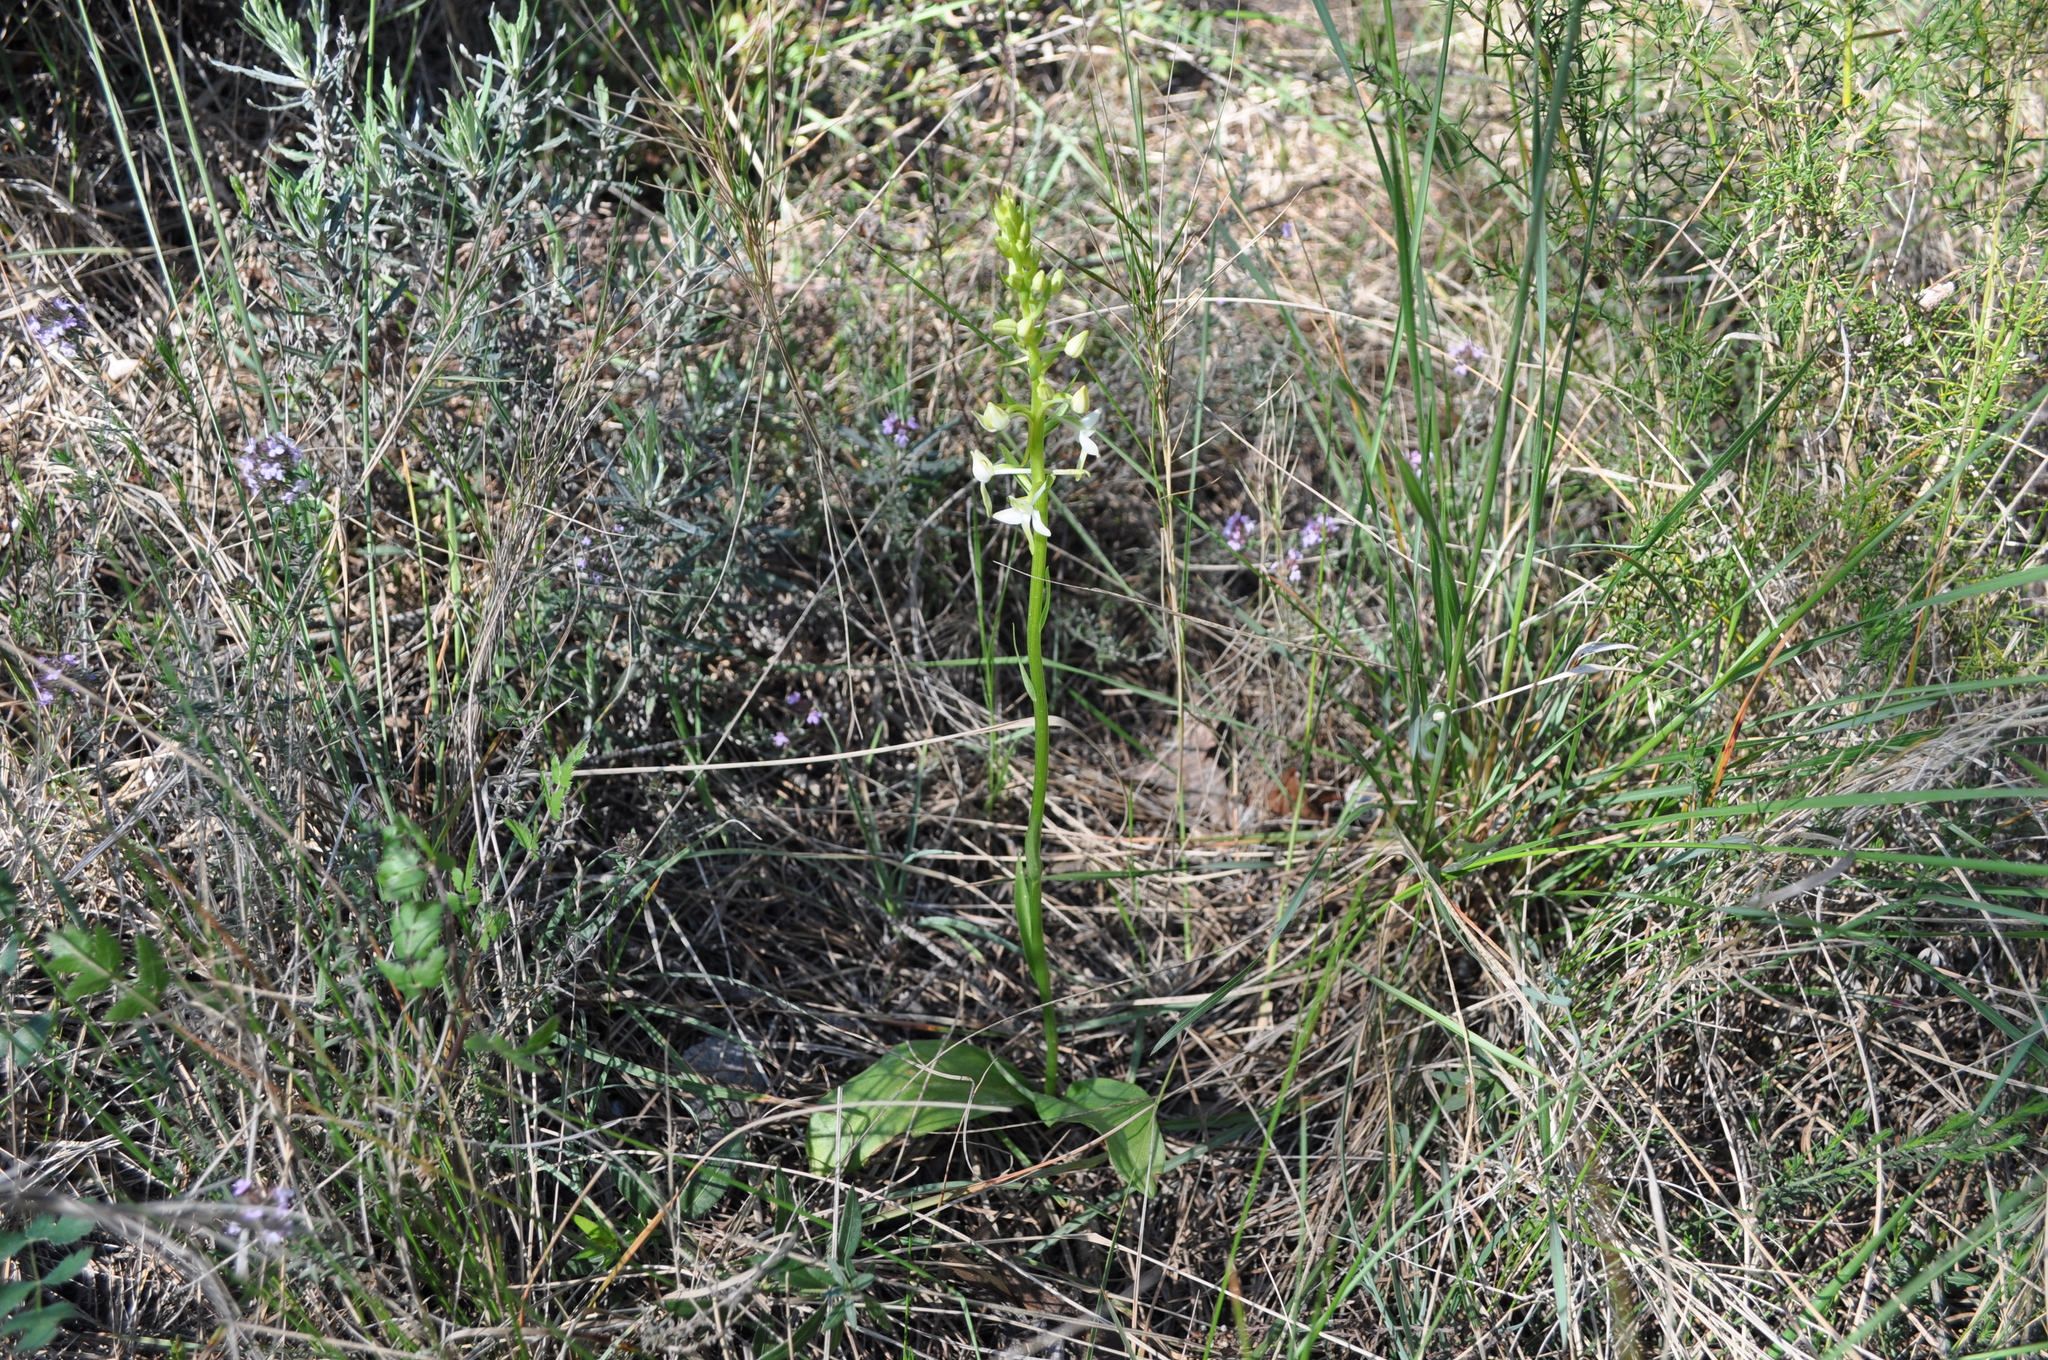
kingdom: Plantae
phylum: Tracheophyta
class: Liliopsida
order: Asparagales
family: Orchidaceae
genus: Platanthera
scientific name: Platanthera bifolia
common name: Lesser butterfly-orchid
